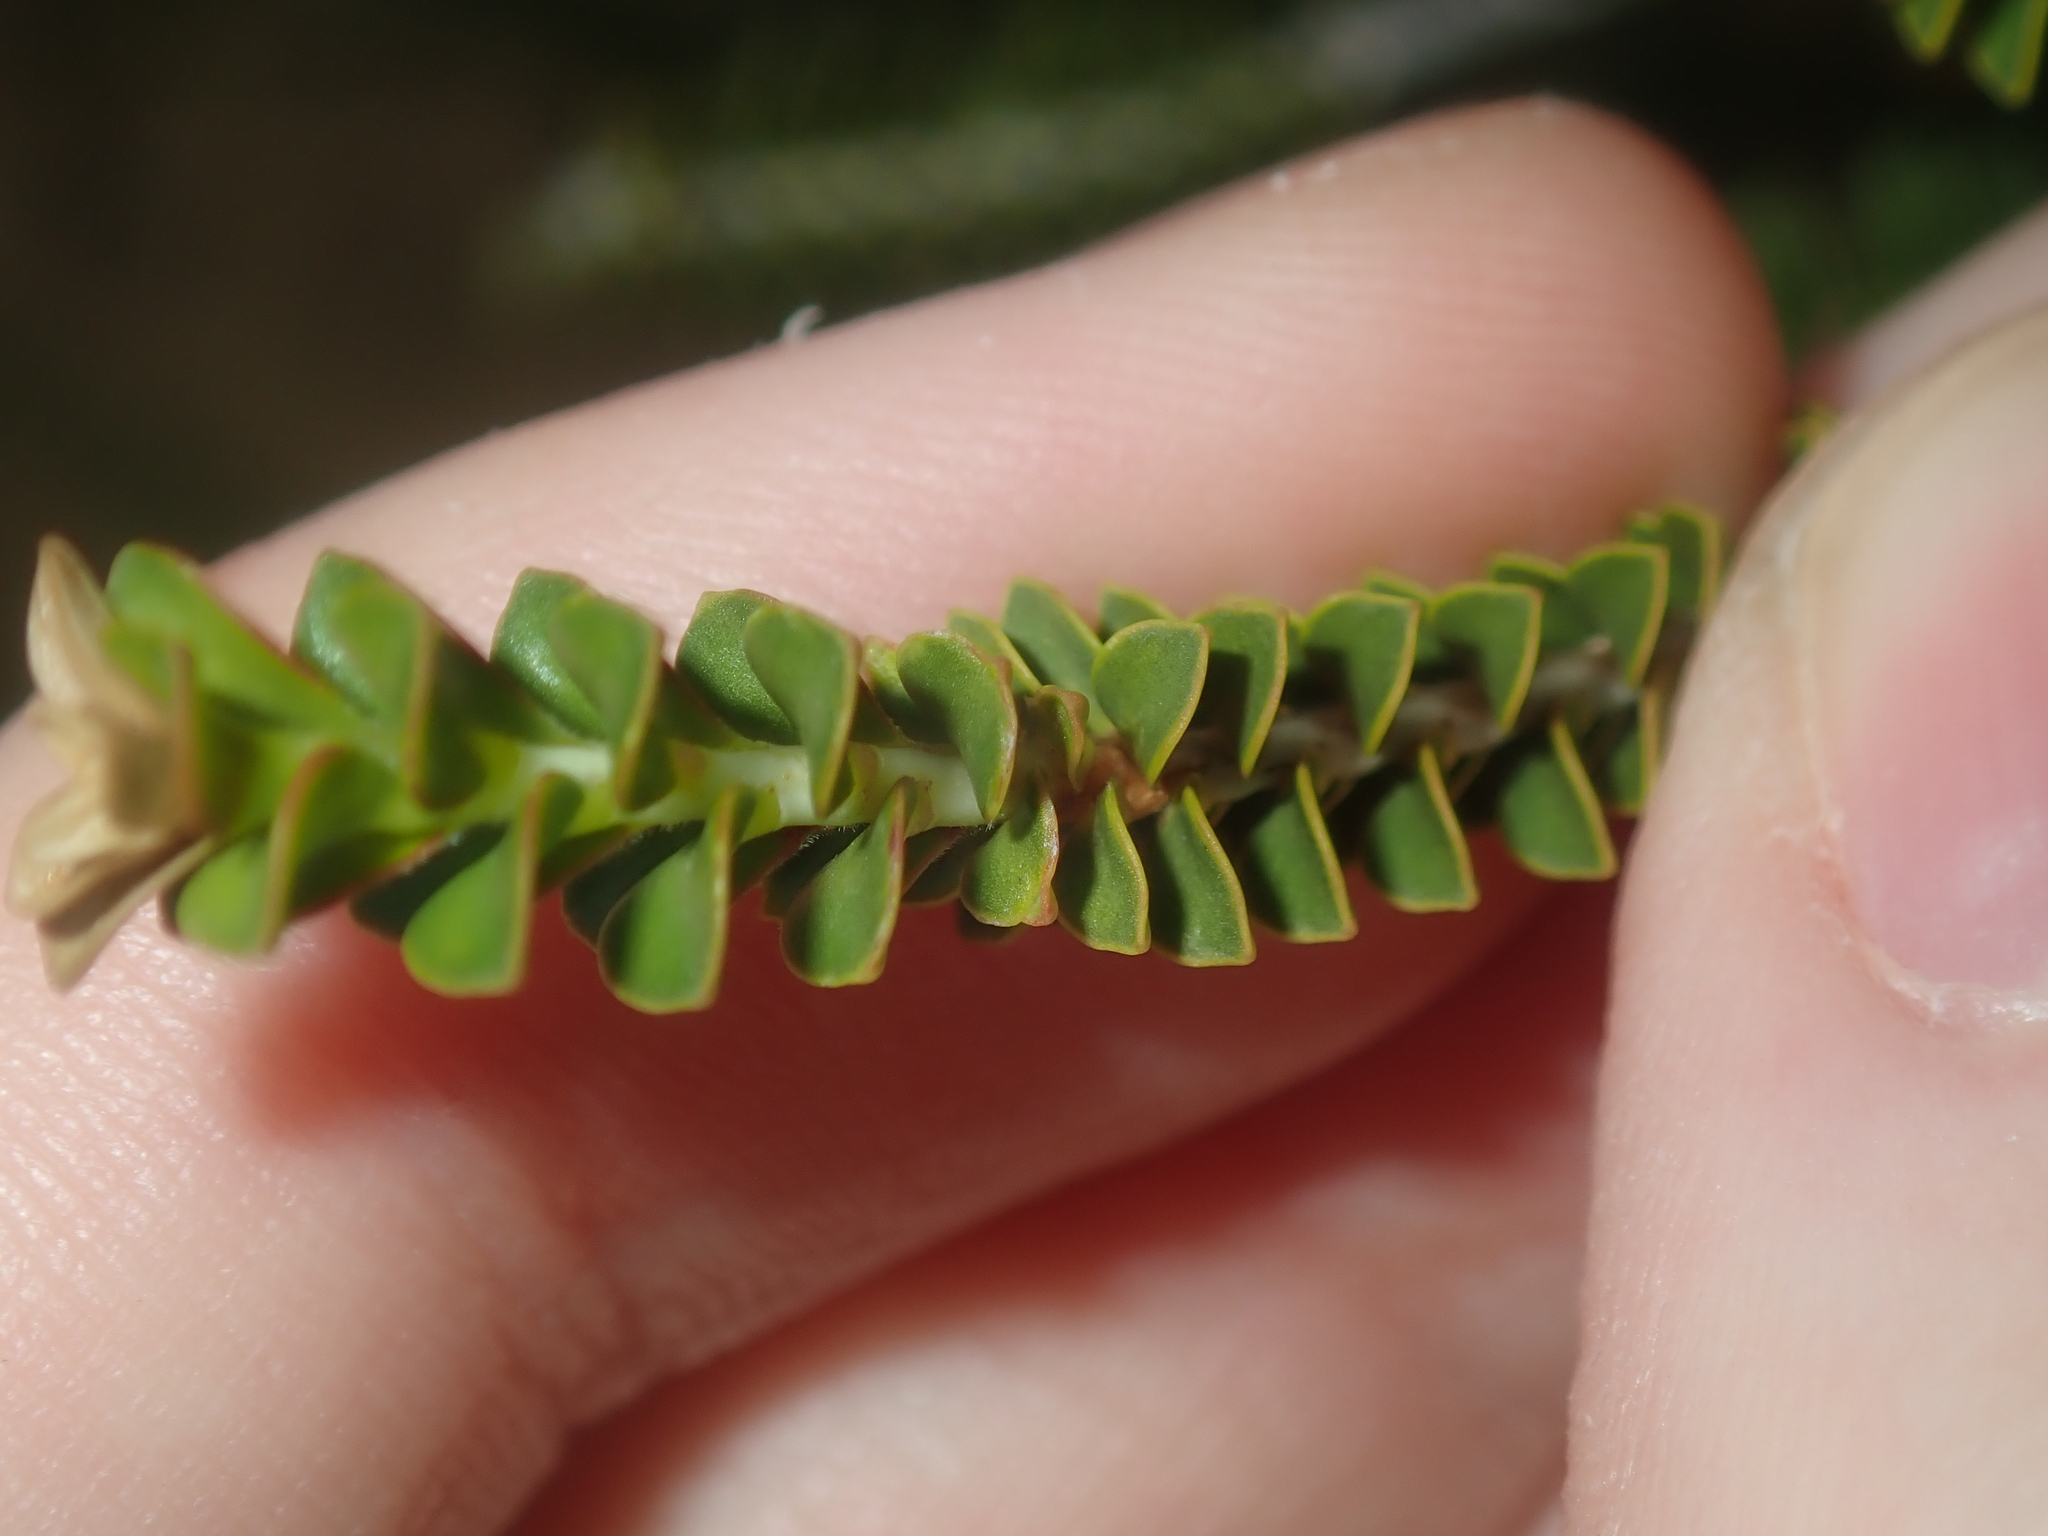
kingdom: Plantae
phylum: Tracheophyta
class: Magnoliopsida
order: Myrtales
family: Myrtaceae
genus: Melaleuca
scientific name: Melaleuca aestiva
